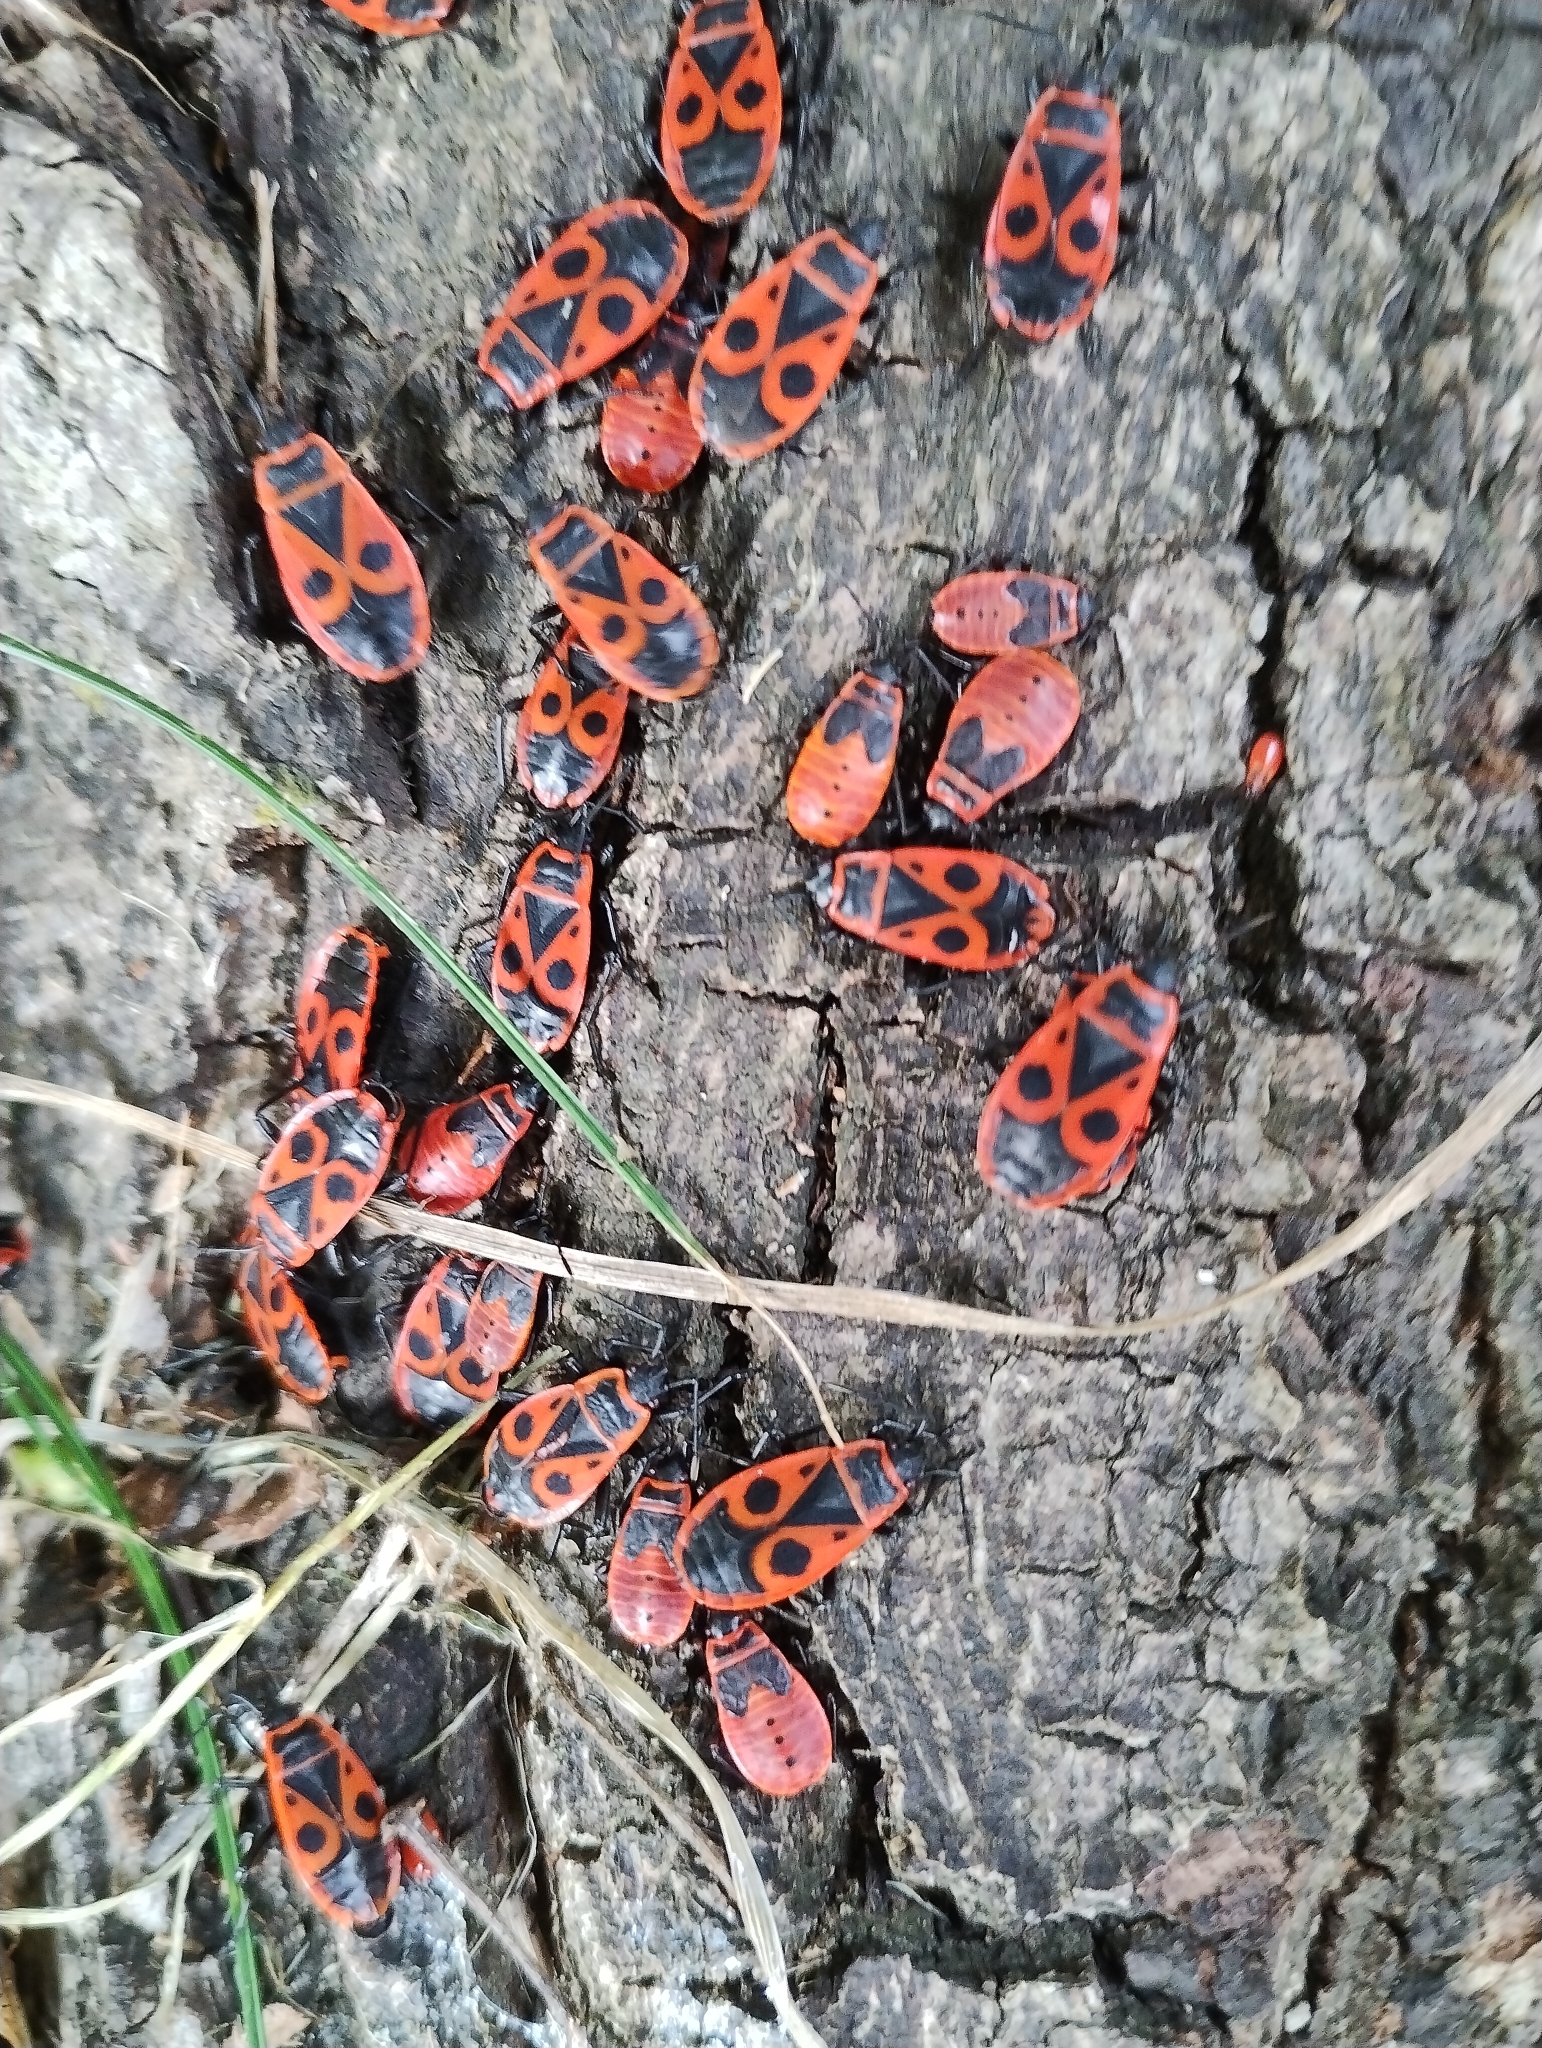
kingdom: Animalia
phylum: Arthropoda
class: Insecta
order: Hemiptera
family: Pyrrhocoridae
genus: Pyrrhocoris
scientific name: Pyrrhocoris apterus
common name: Firebug
